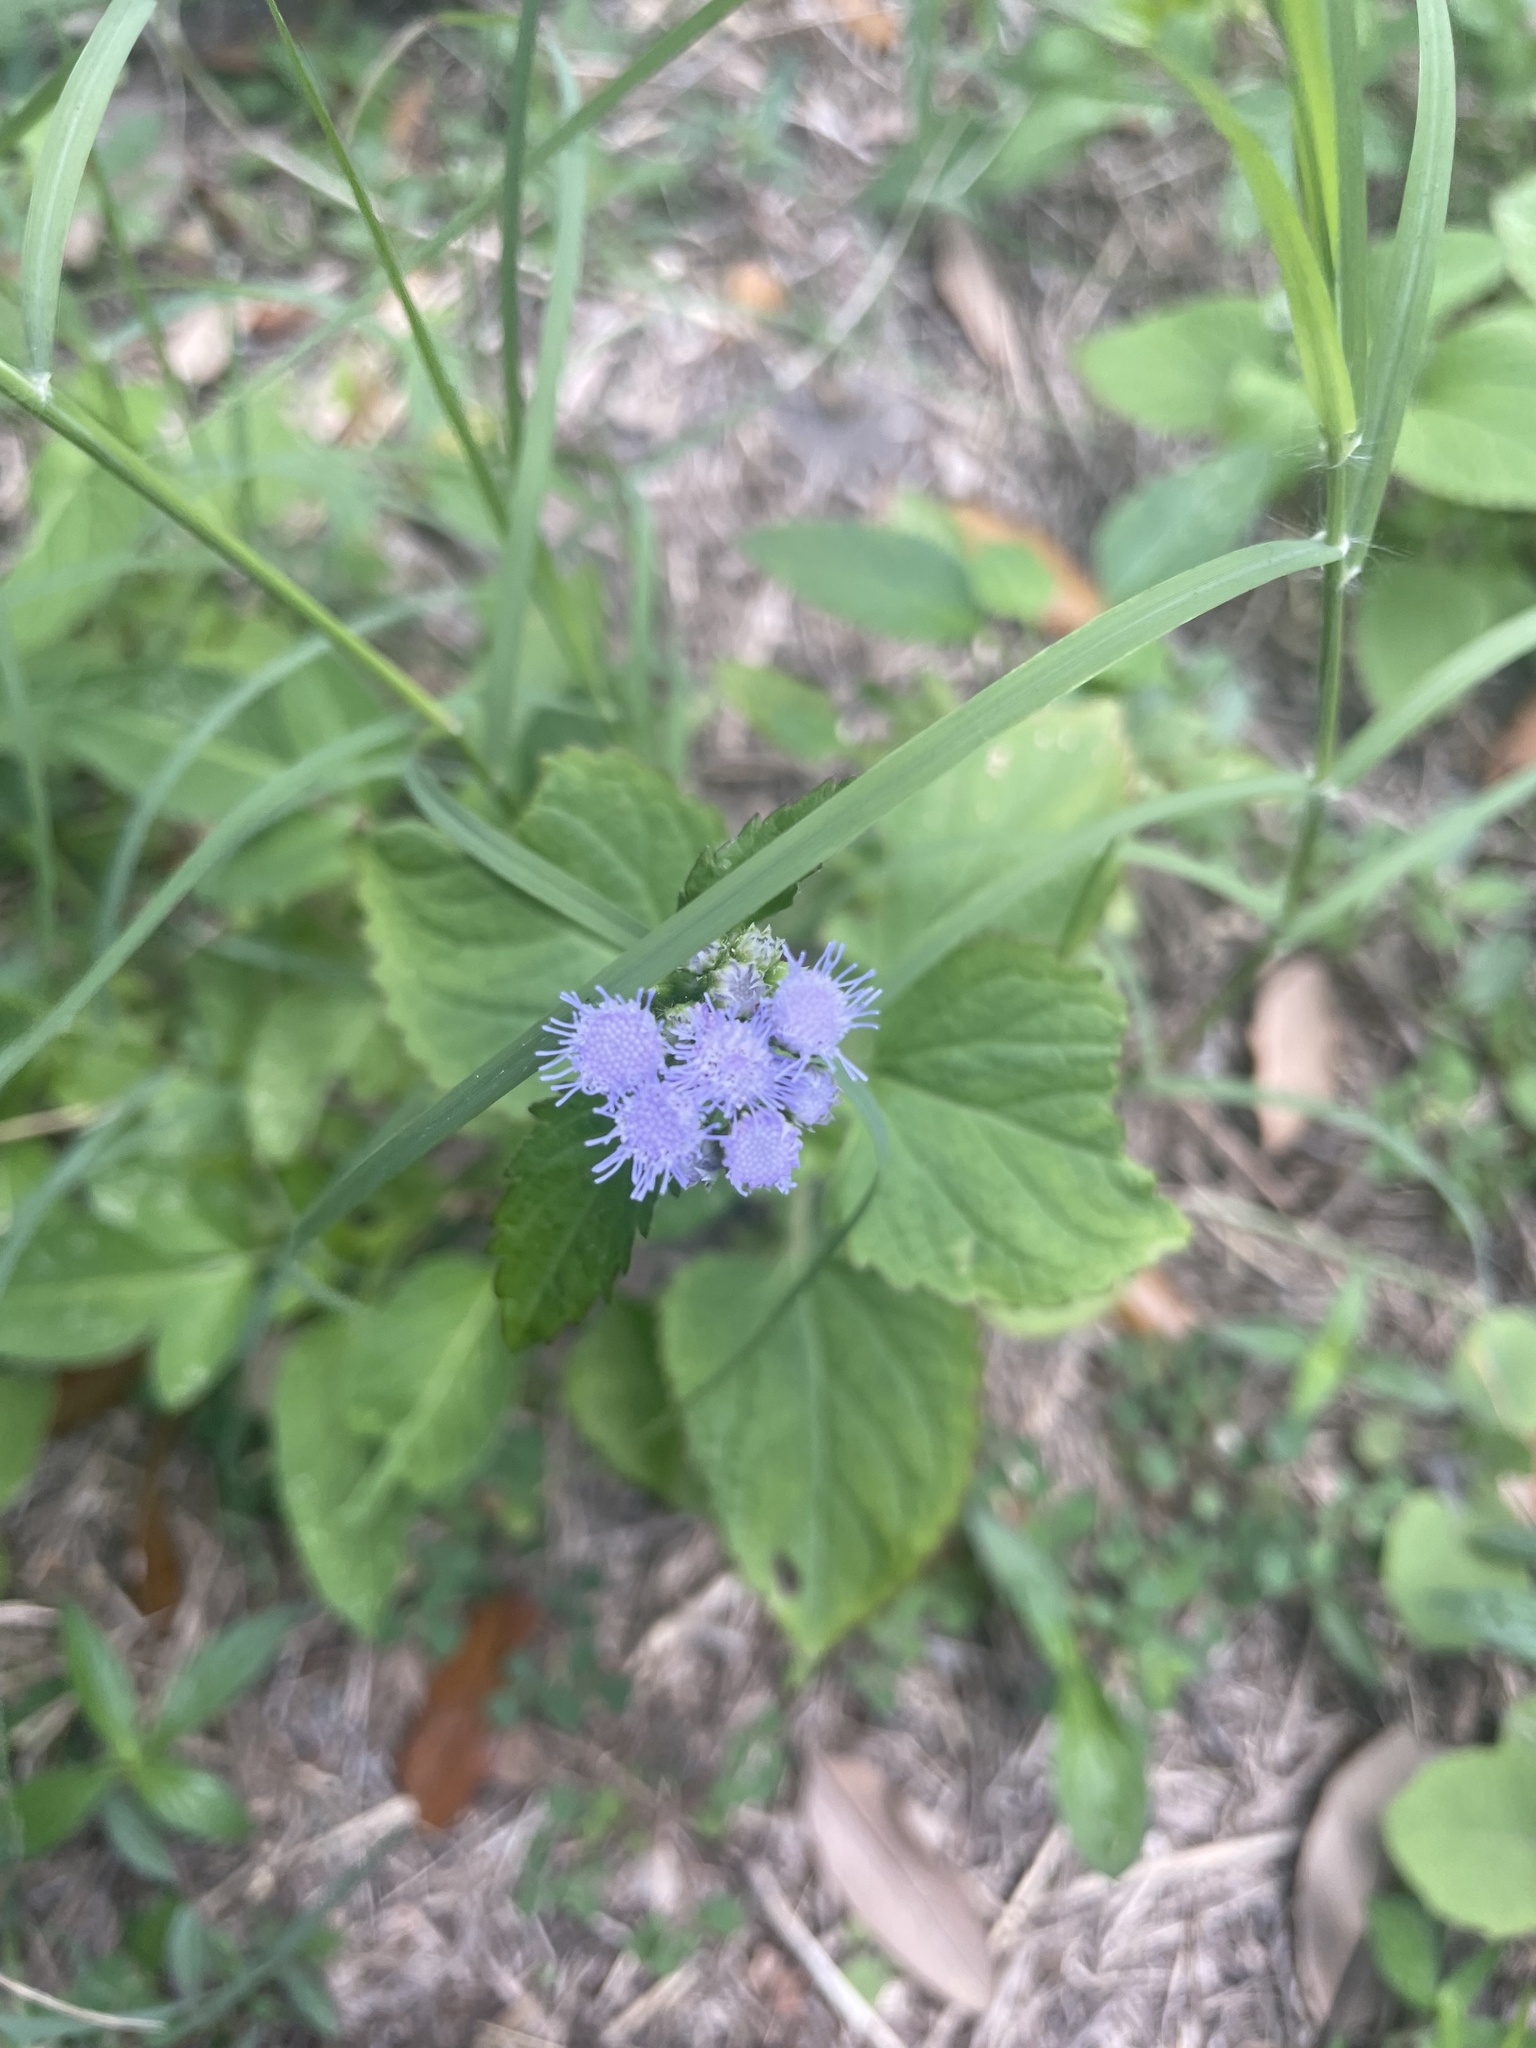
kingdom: Plantae
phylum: Tracheophyta
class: Magnoliopsida
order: Asterales
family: Asteraceae
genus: Ageratum
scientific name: Ageratum houstonianum
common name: Bluemink
